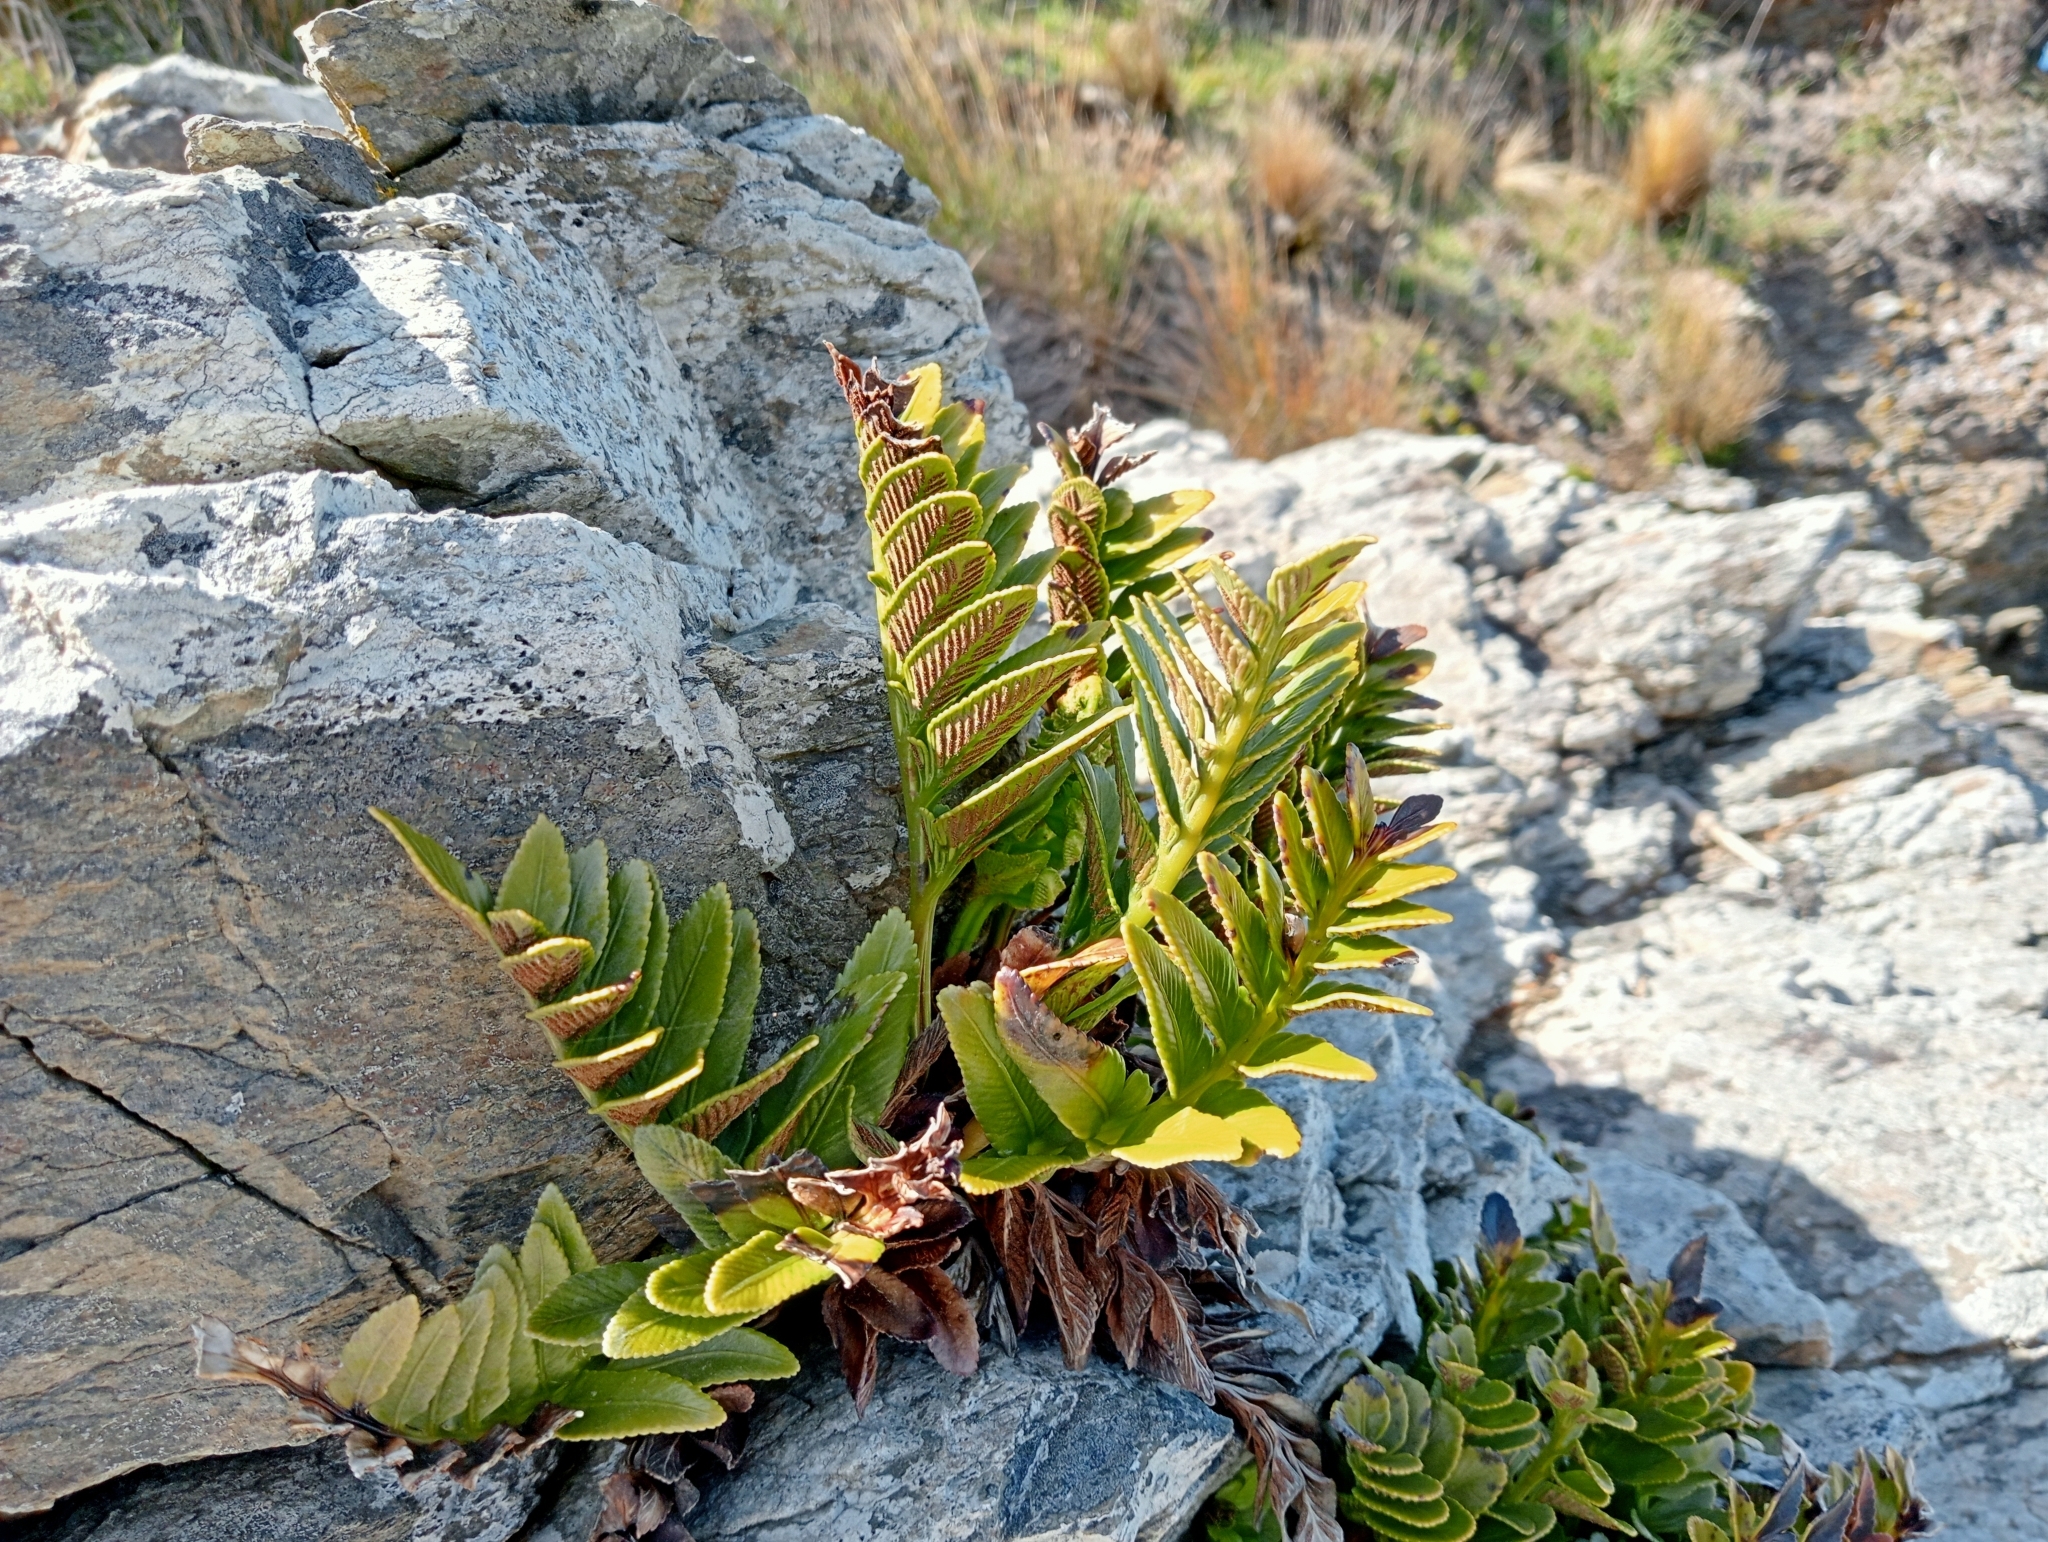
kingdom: Plantae
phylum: Tracheophyta
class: Polypodiopsida
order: Polypodiales
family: Aspleniaceae
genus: Asplenium
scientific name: Asplenium obtusatum
